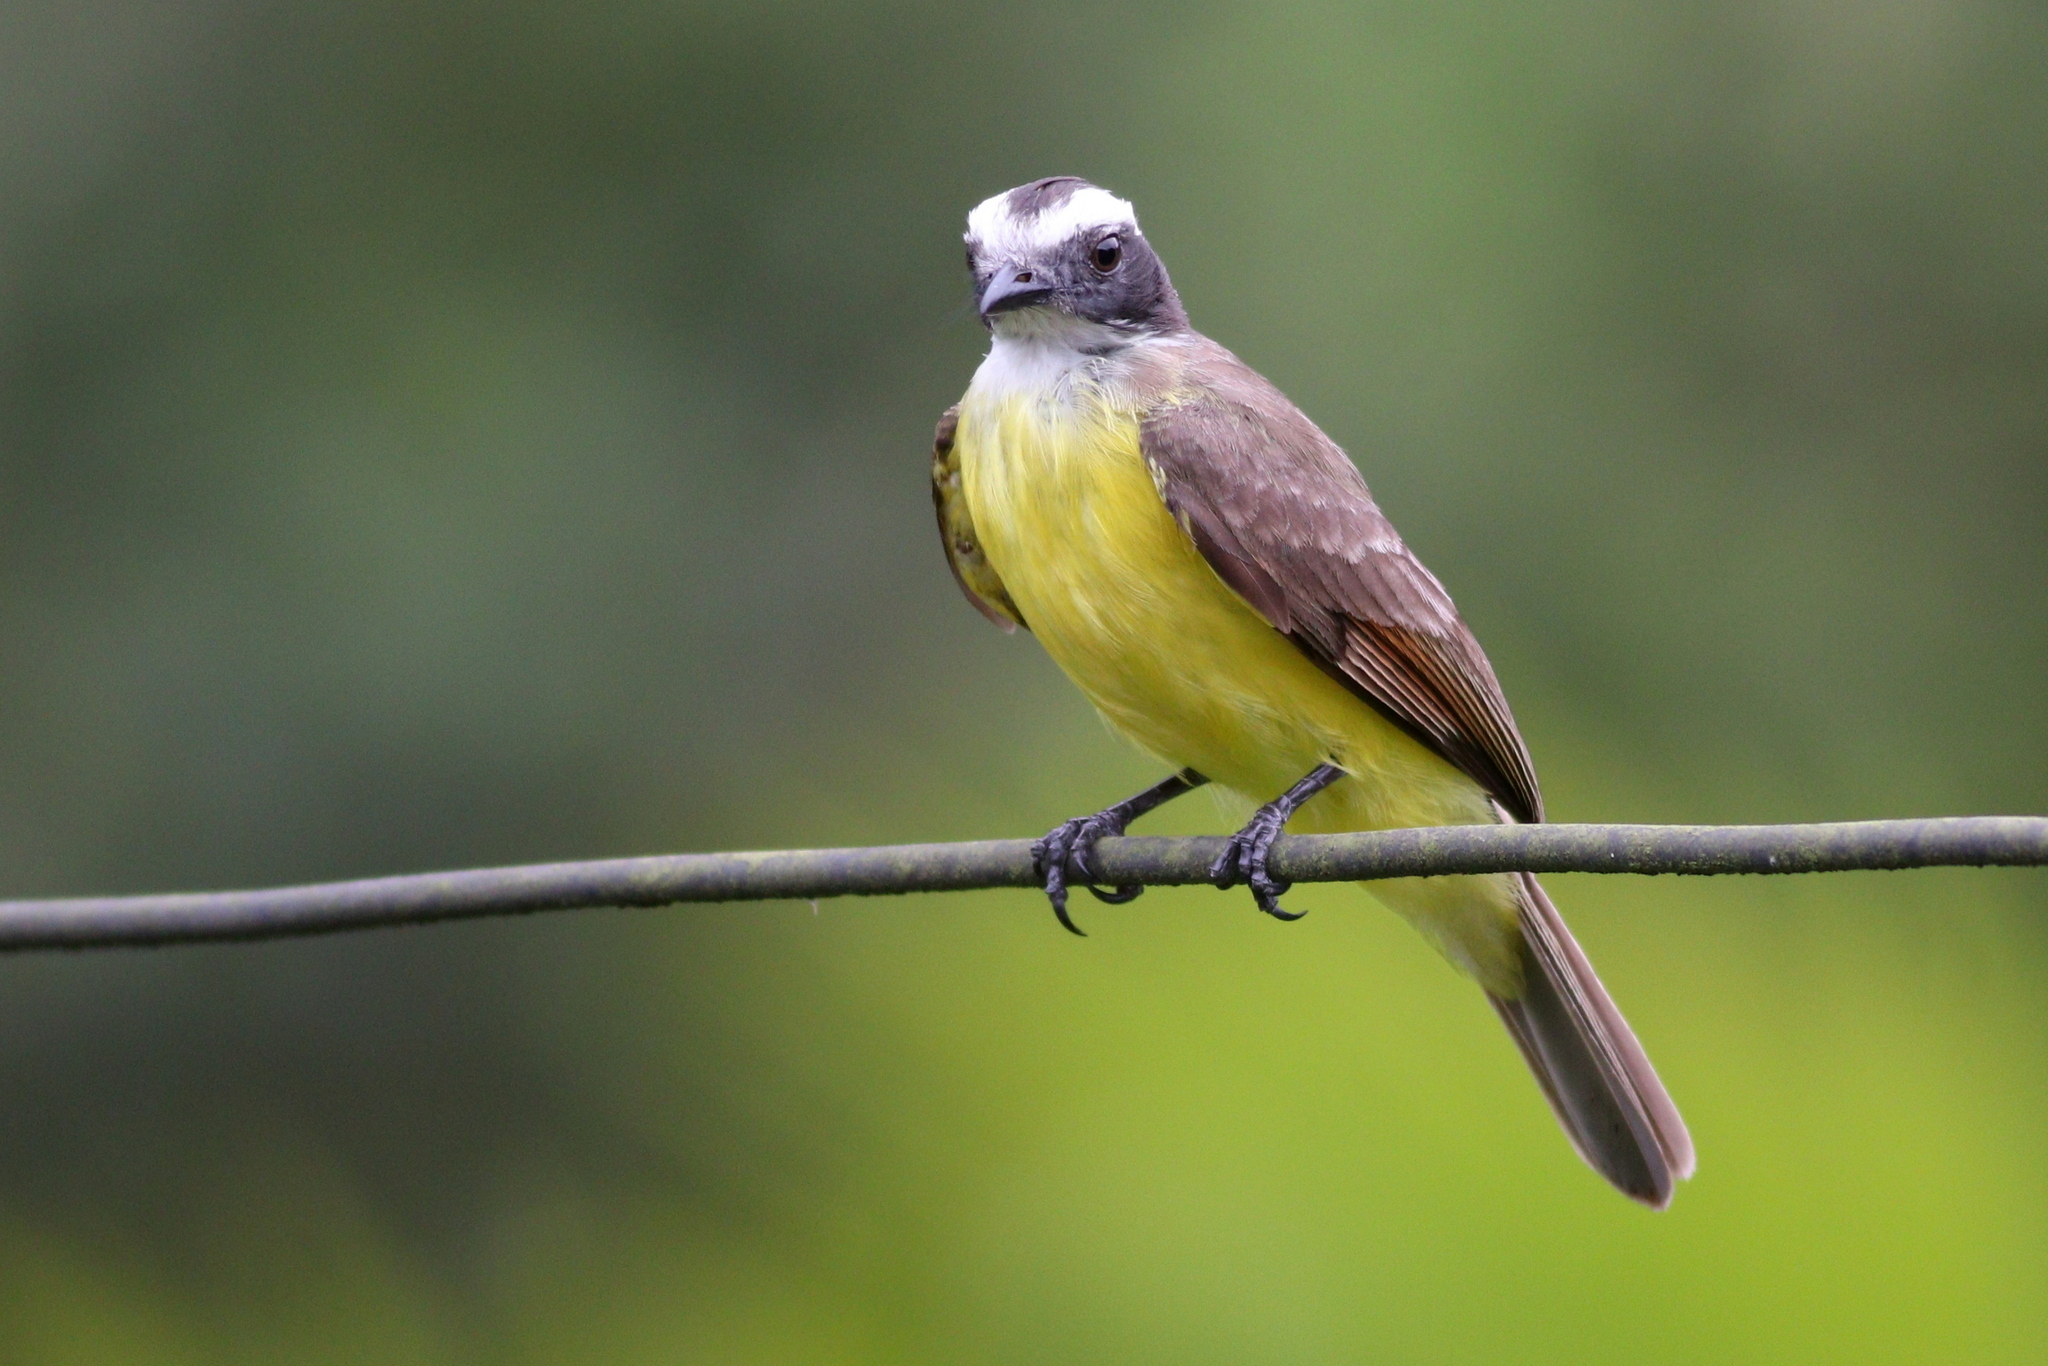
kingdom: Animalia
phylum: Chordata
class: Aves
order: Passeriformes
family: Tyrannidae
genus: Myiozetetes
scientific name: Myiozetetes cayanensis
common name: Rusty-margined flycatcher
